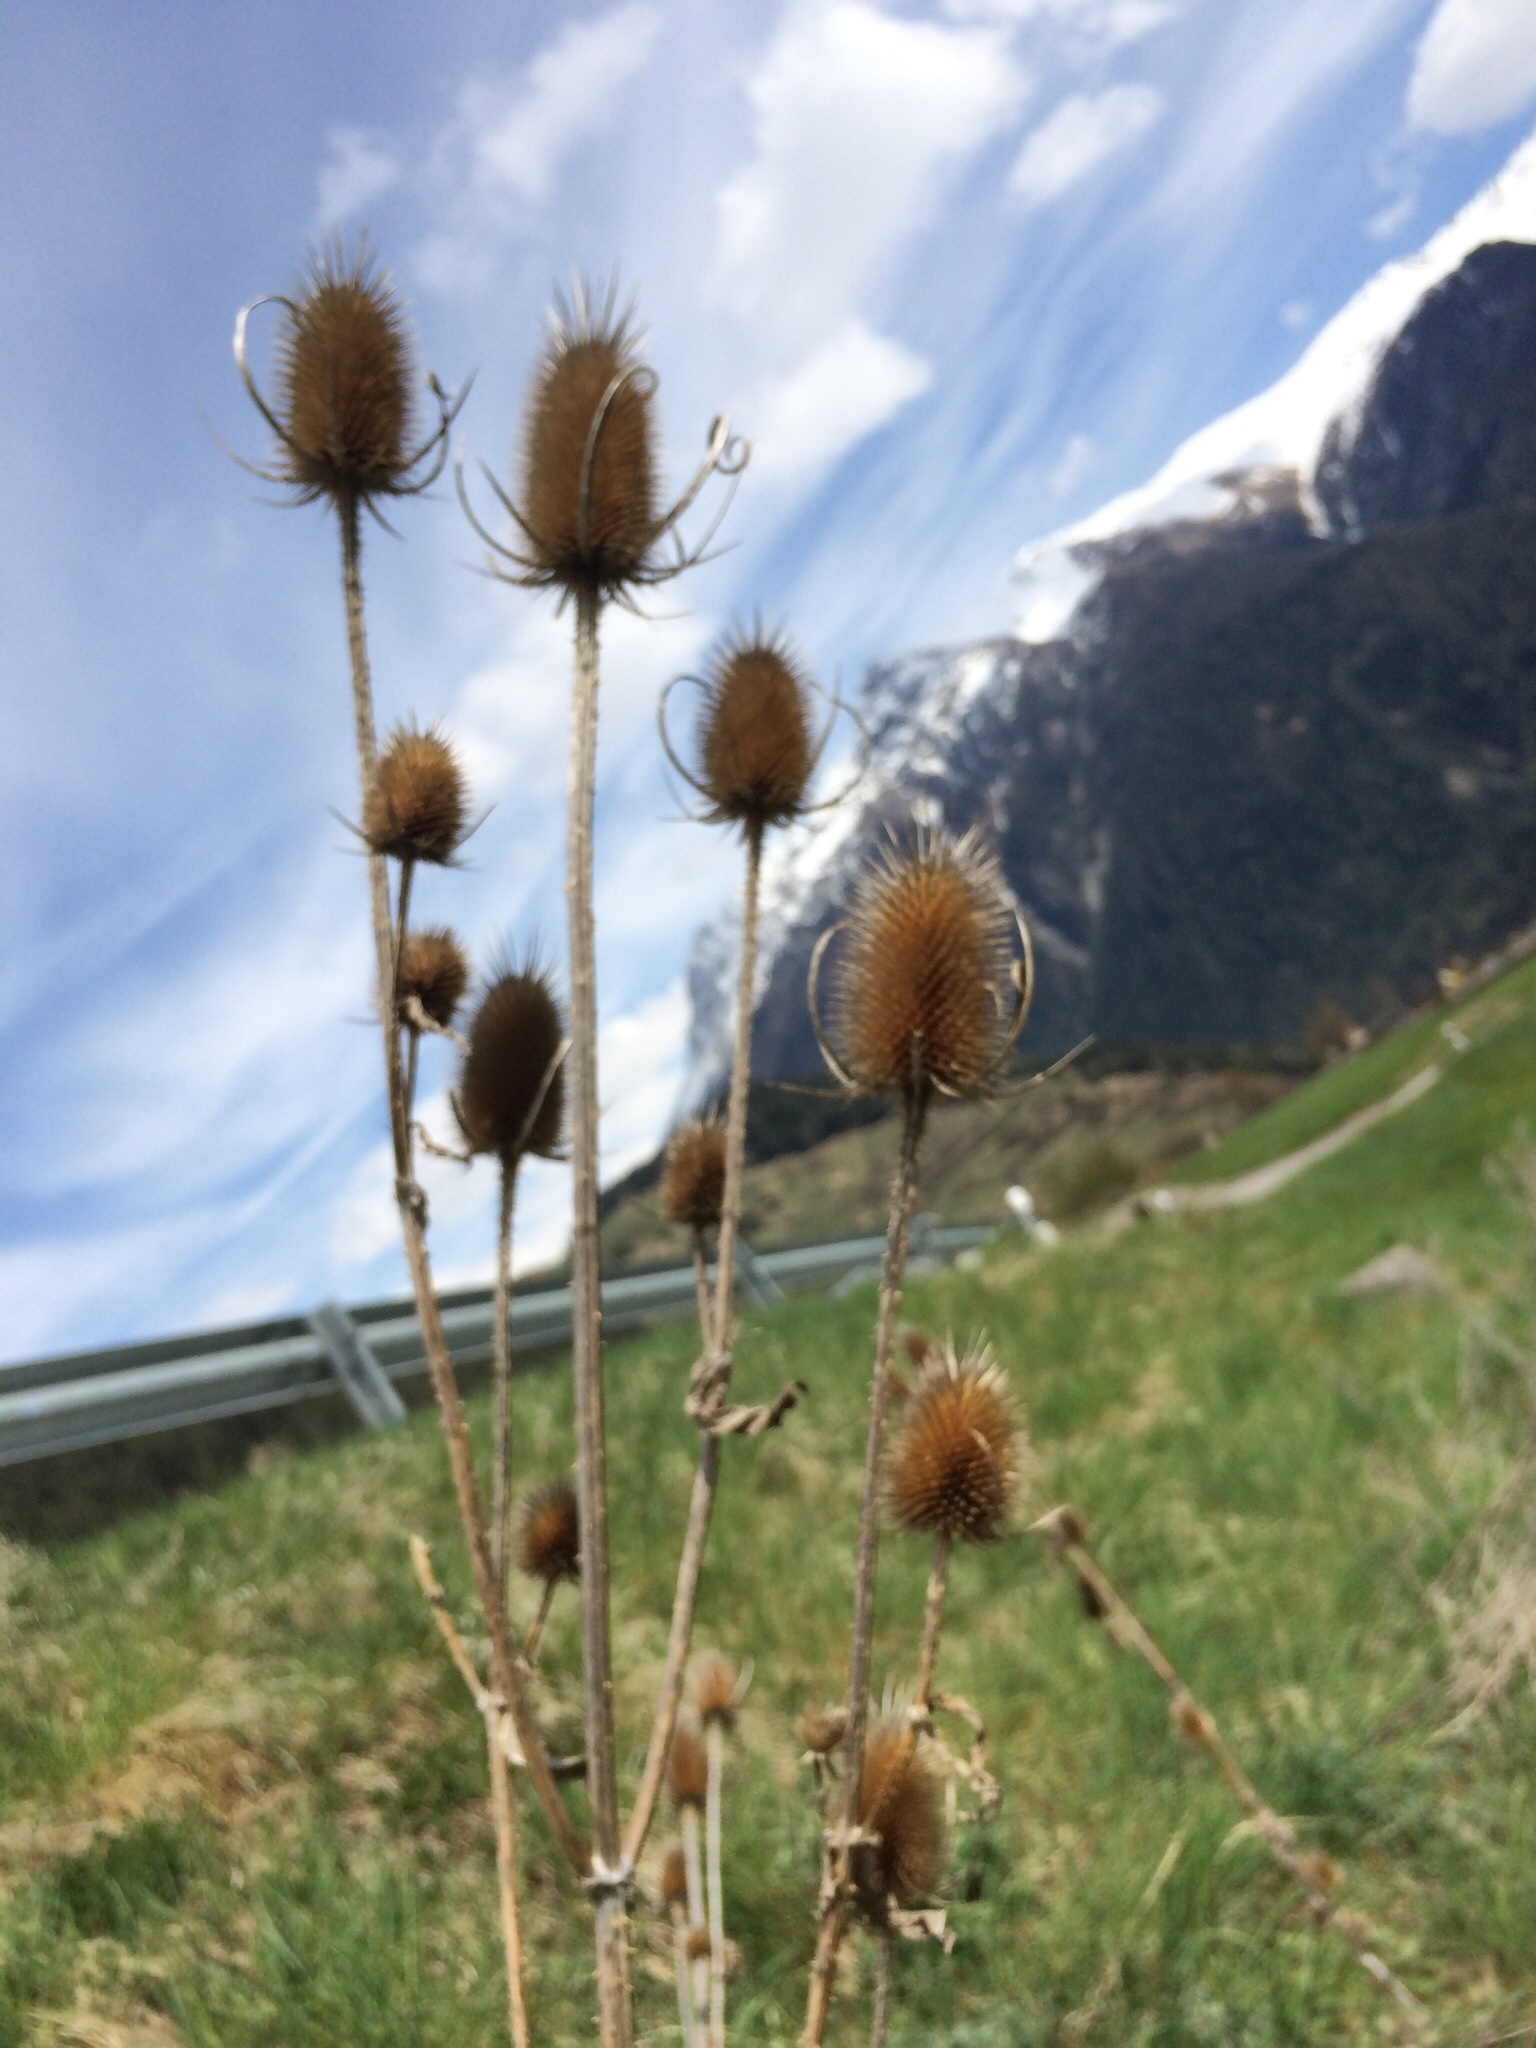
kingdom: Plantae
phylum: Tracheophyta
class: Magnoliopsida
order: Dipsacales
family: Caprifoliaceae
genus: Dipsacus
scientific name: Dipsacus fullonum
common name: Teasel
